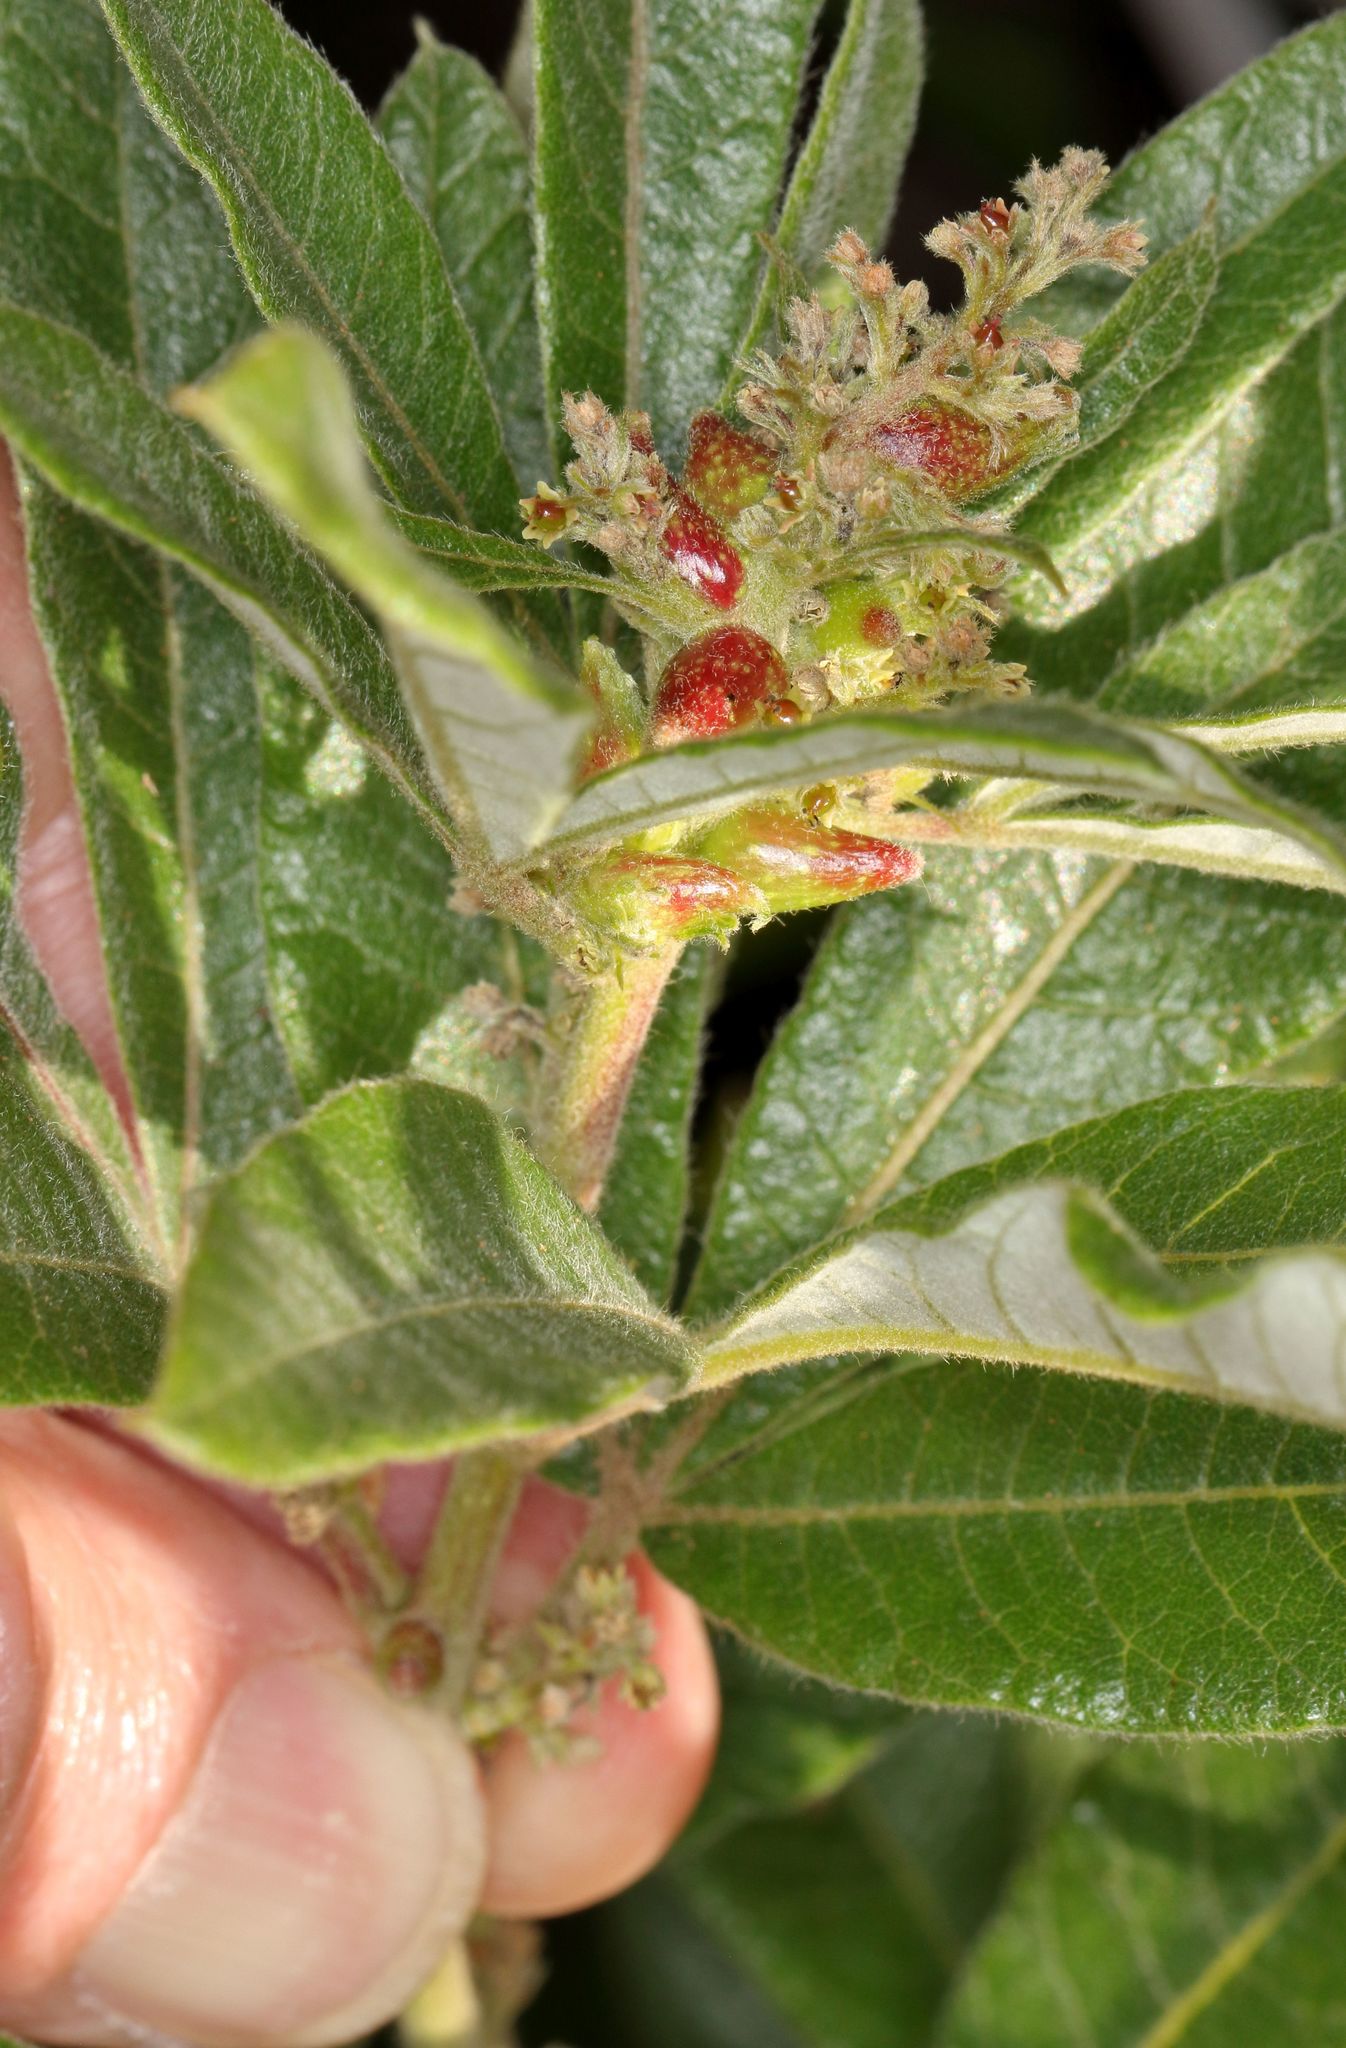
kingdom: Plantae
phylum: Tracheophyta
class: Magnoliopsida
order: Sapindales
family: Anacardiaceae
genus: Searsia
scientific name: Searsia discolor
